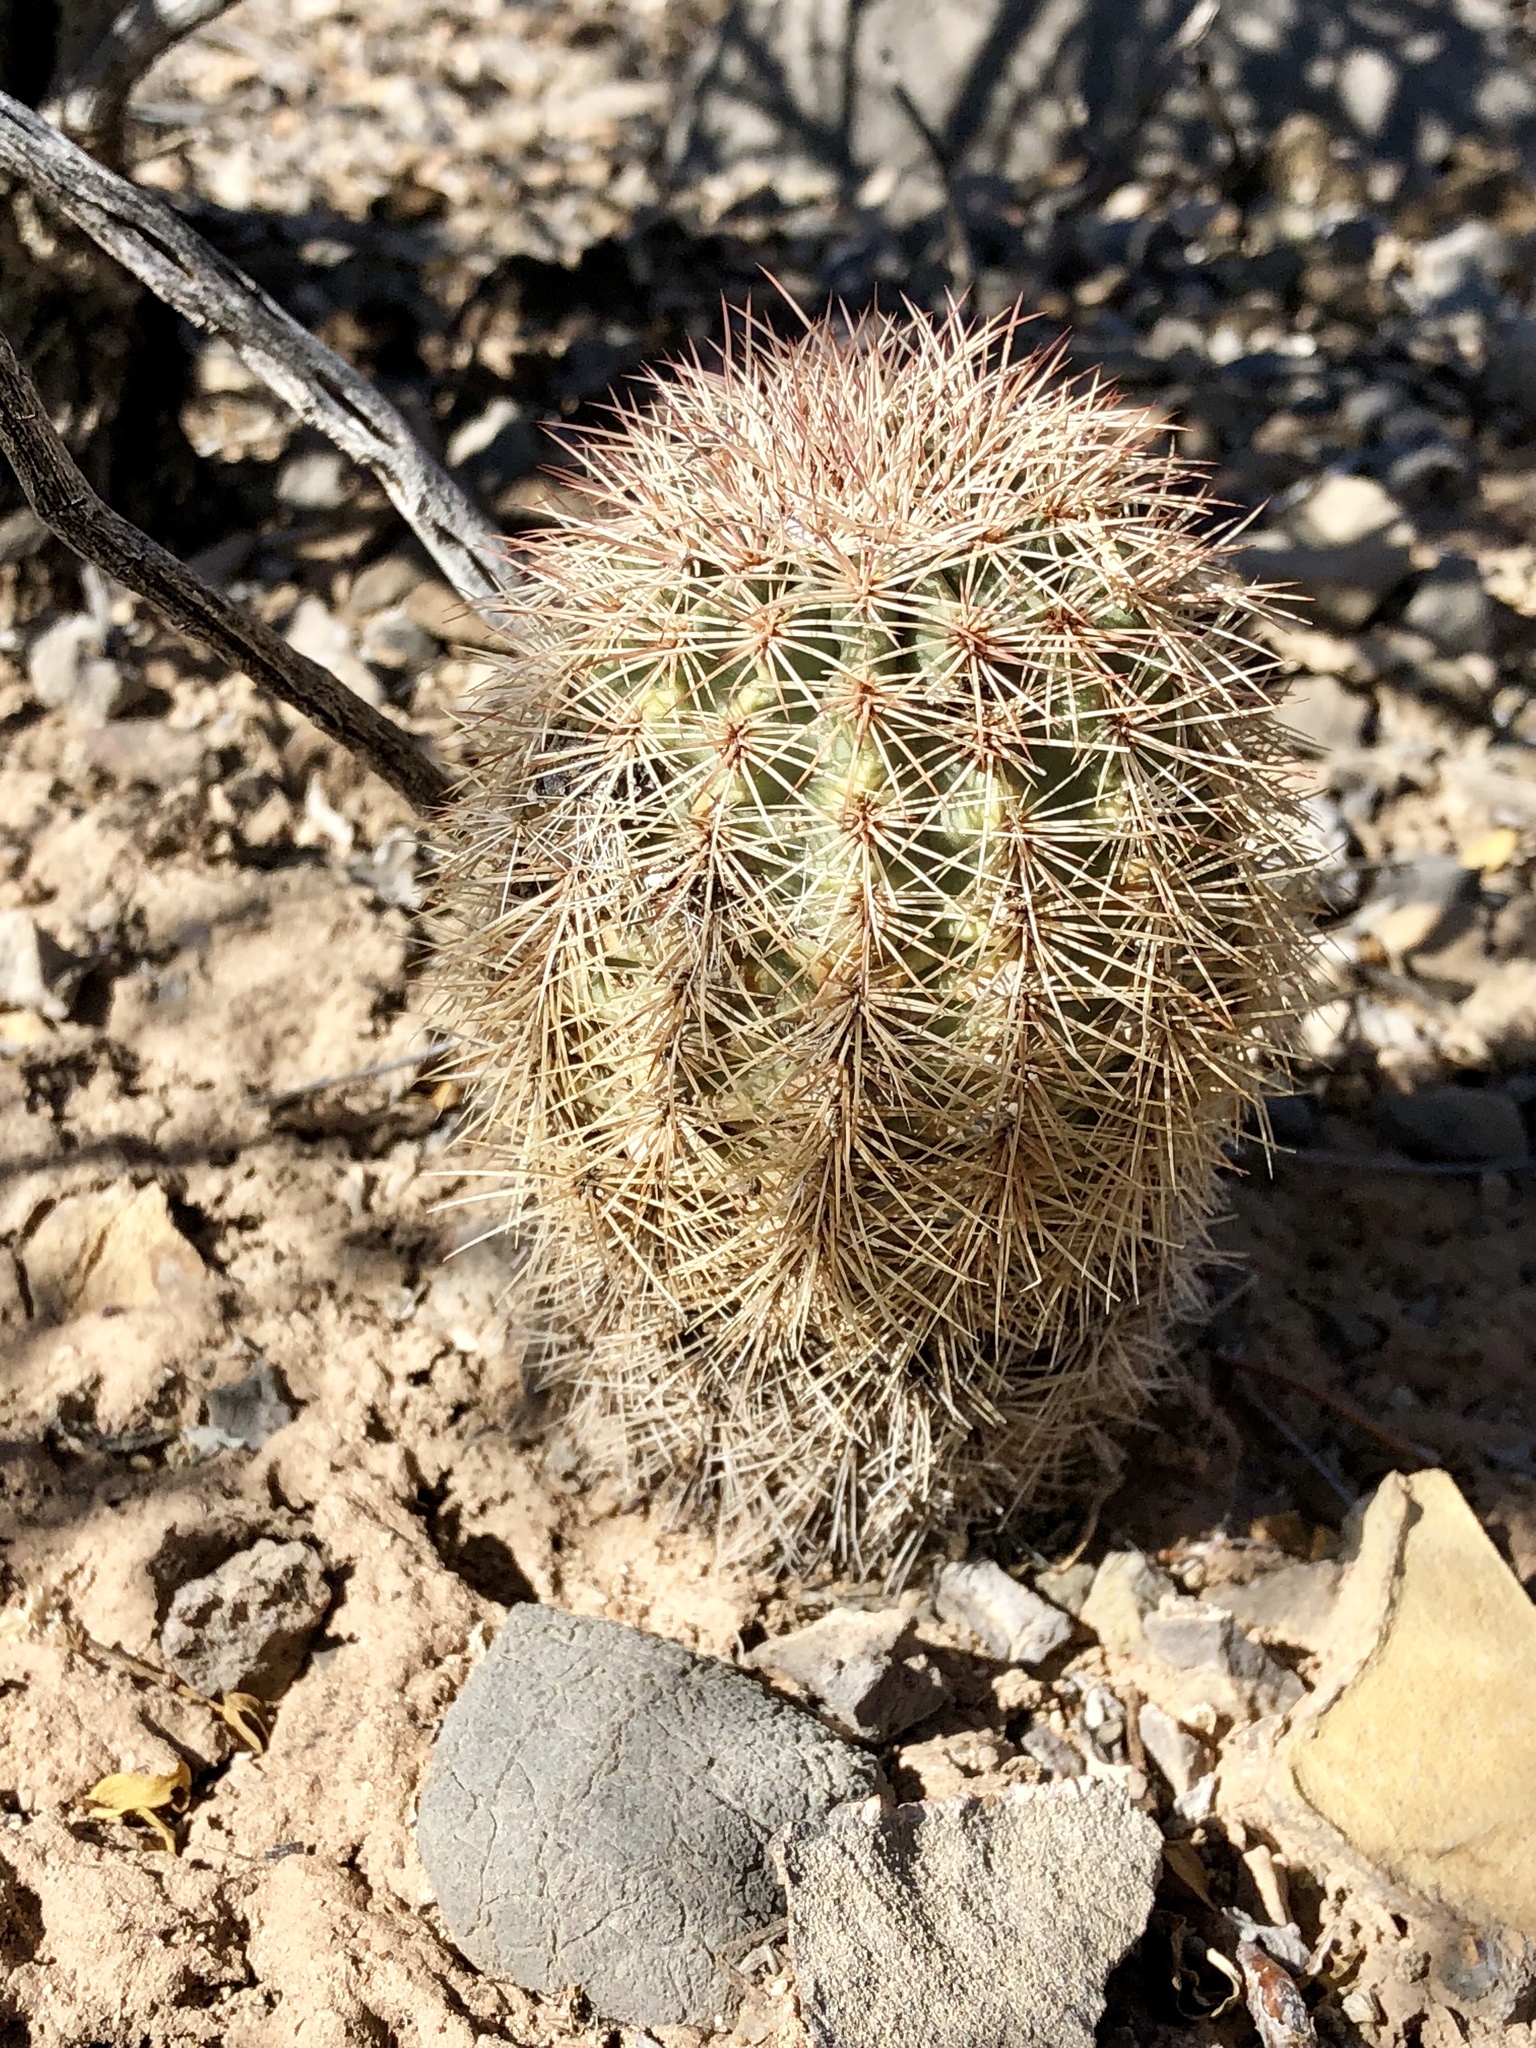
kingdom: Plantae
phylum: Tracheophyta
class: Magnoliopsida
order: Caryophyllales
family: Cactaceae
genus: Echinocereus
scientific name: Echinocereus dasyacanthus
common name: Spiny hedgehog cactus
